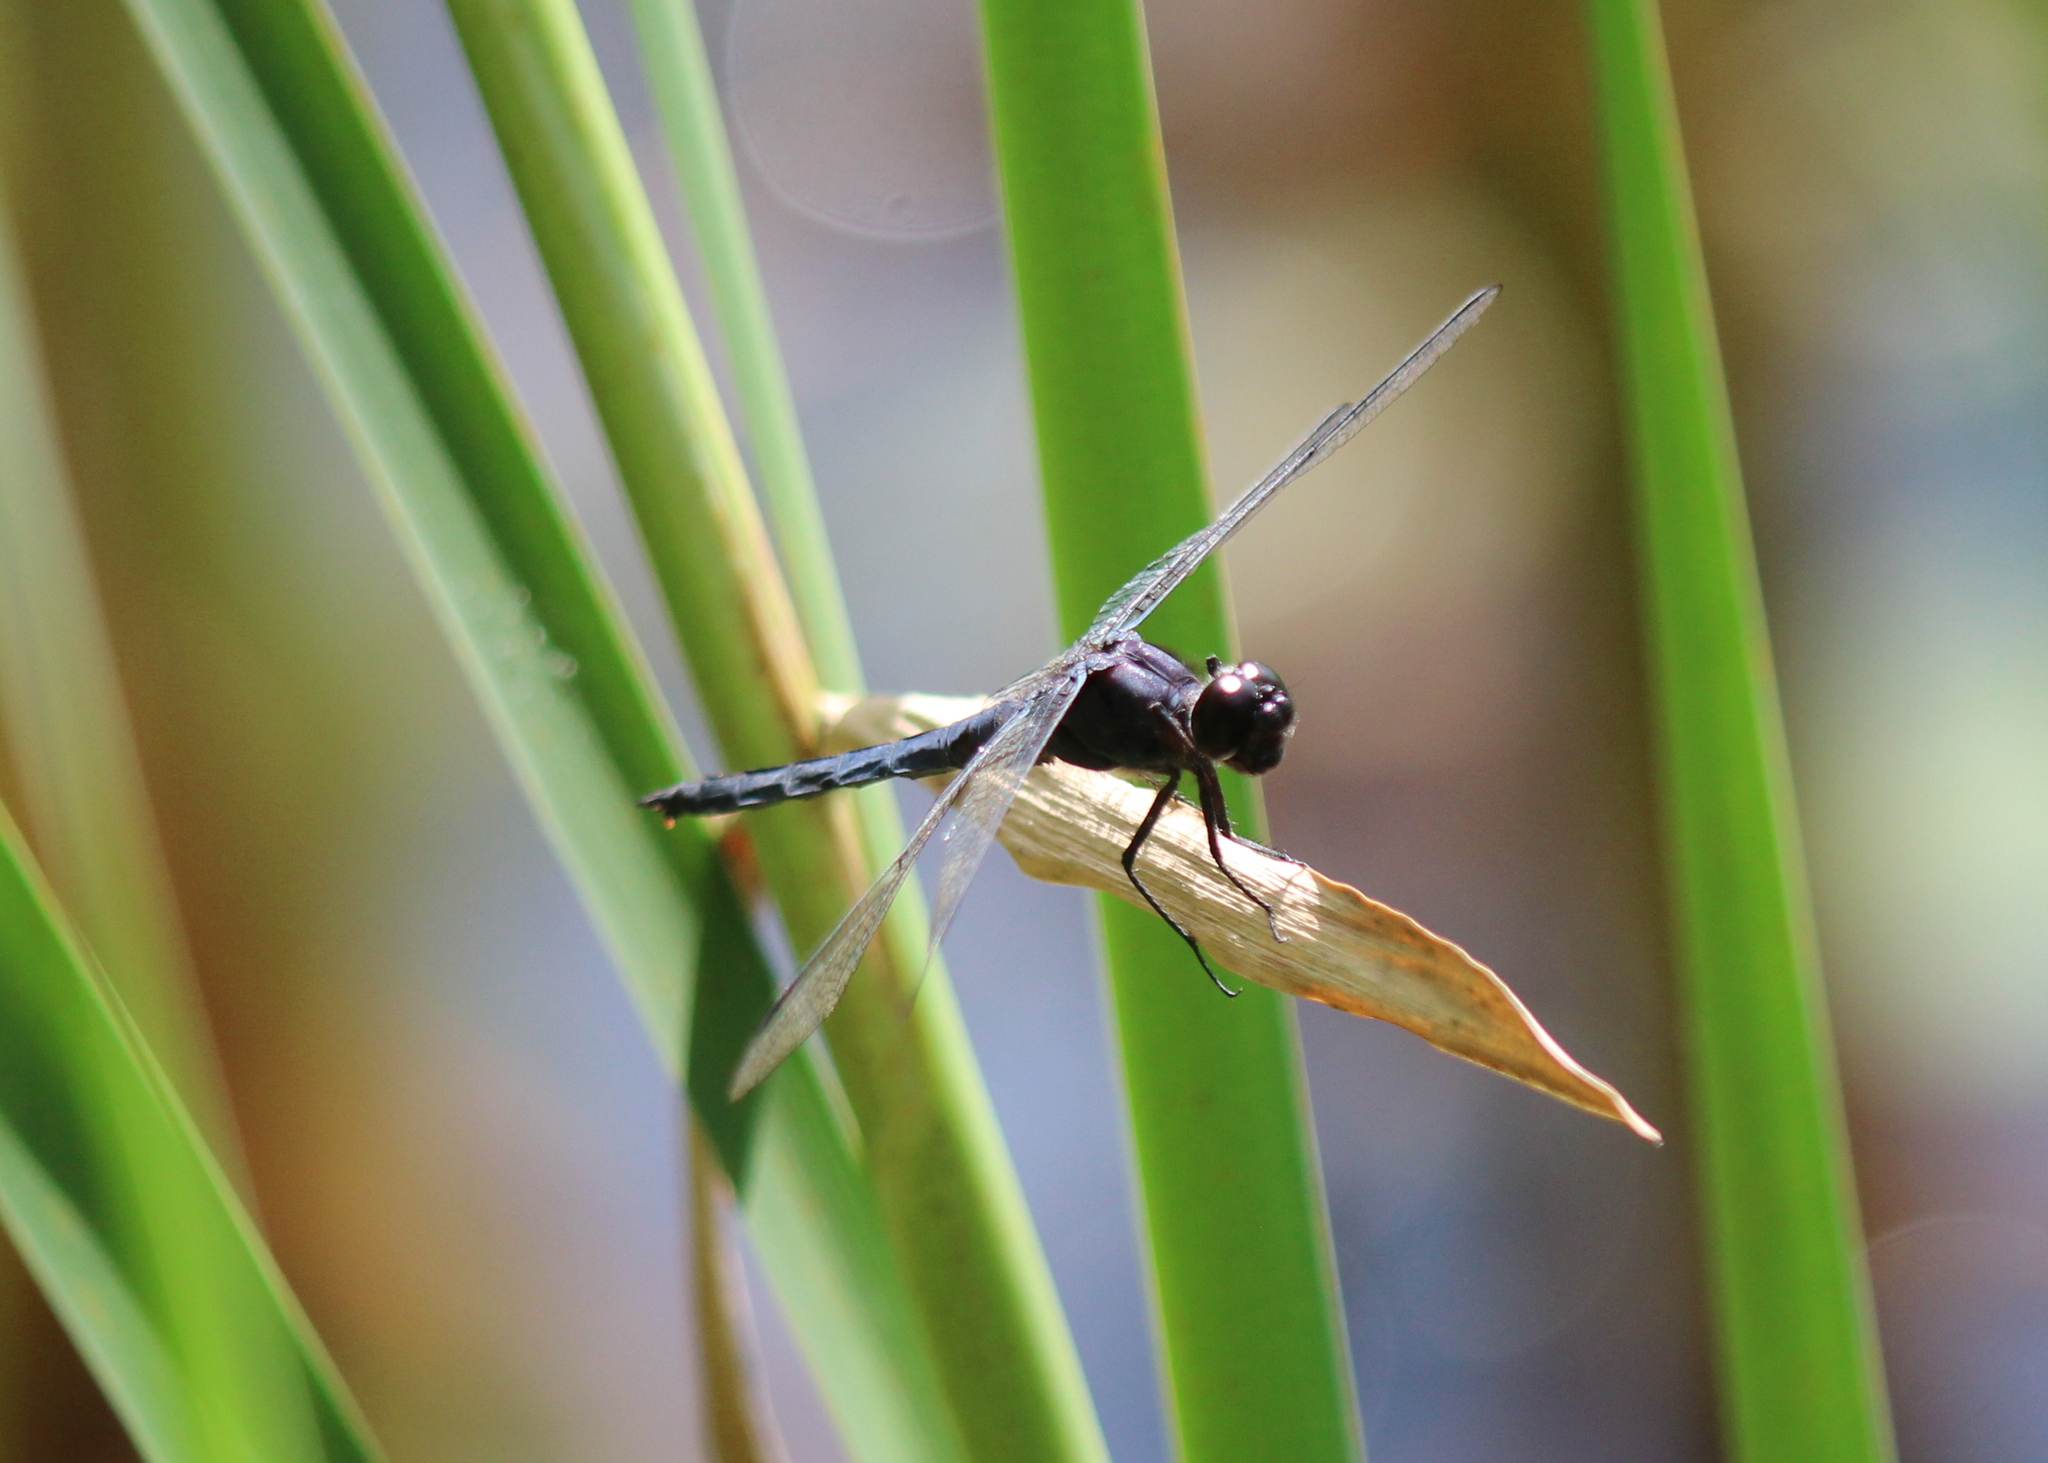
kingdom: Animalia
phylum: Arthropoda
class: Insecta
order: Odonata
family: Libellulidae
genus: Libellula
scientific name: Libellula incesta
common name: Slaty skimmer
